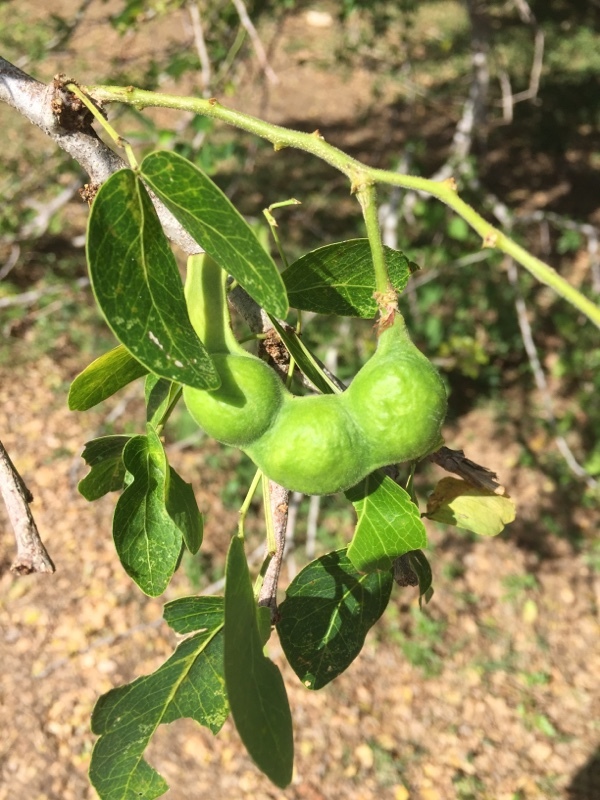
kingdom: Plantae
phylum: Tracheophyta
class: Magnoliopsida
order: Fabales
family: Fabaceae
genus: Pithecellobium
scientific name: Pithecellobium dulce
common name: Monkeypod
